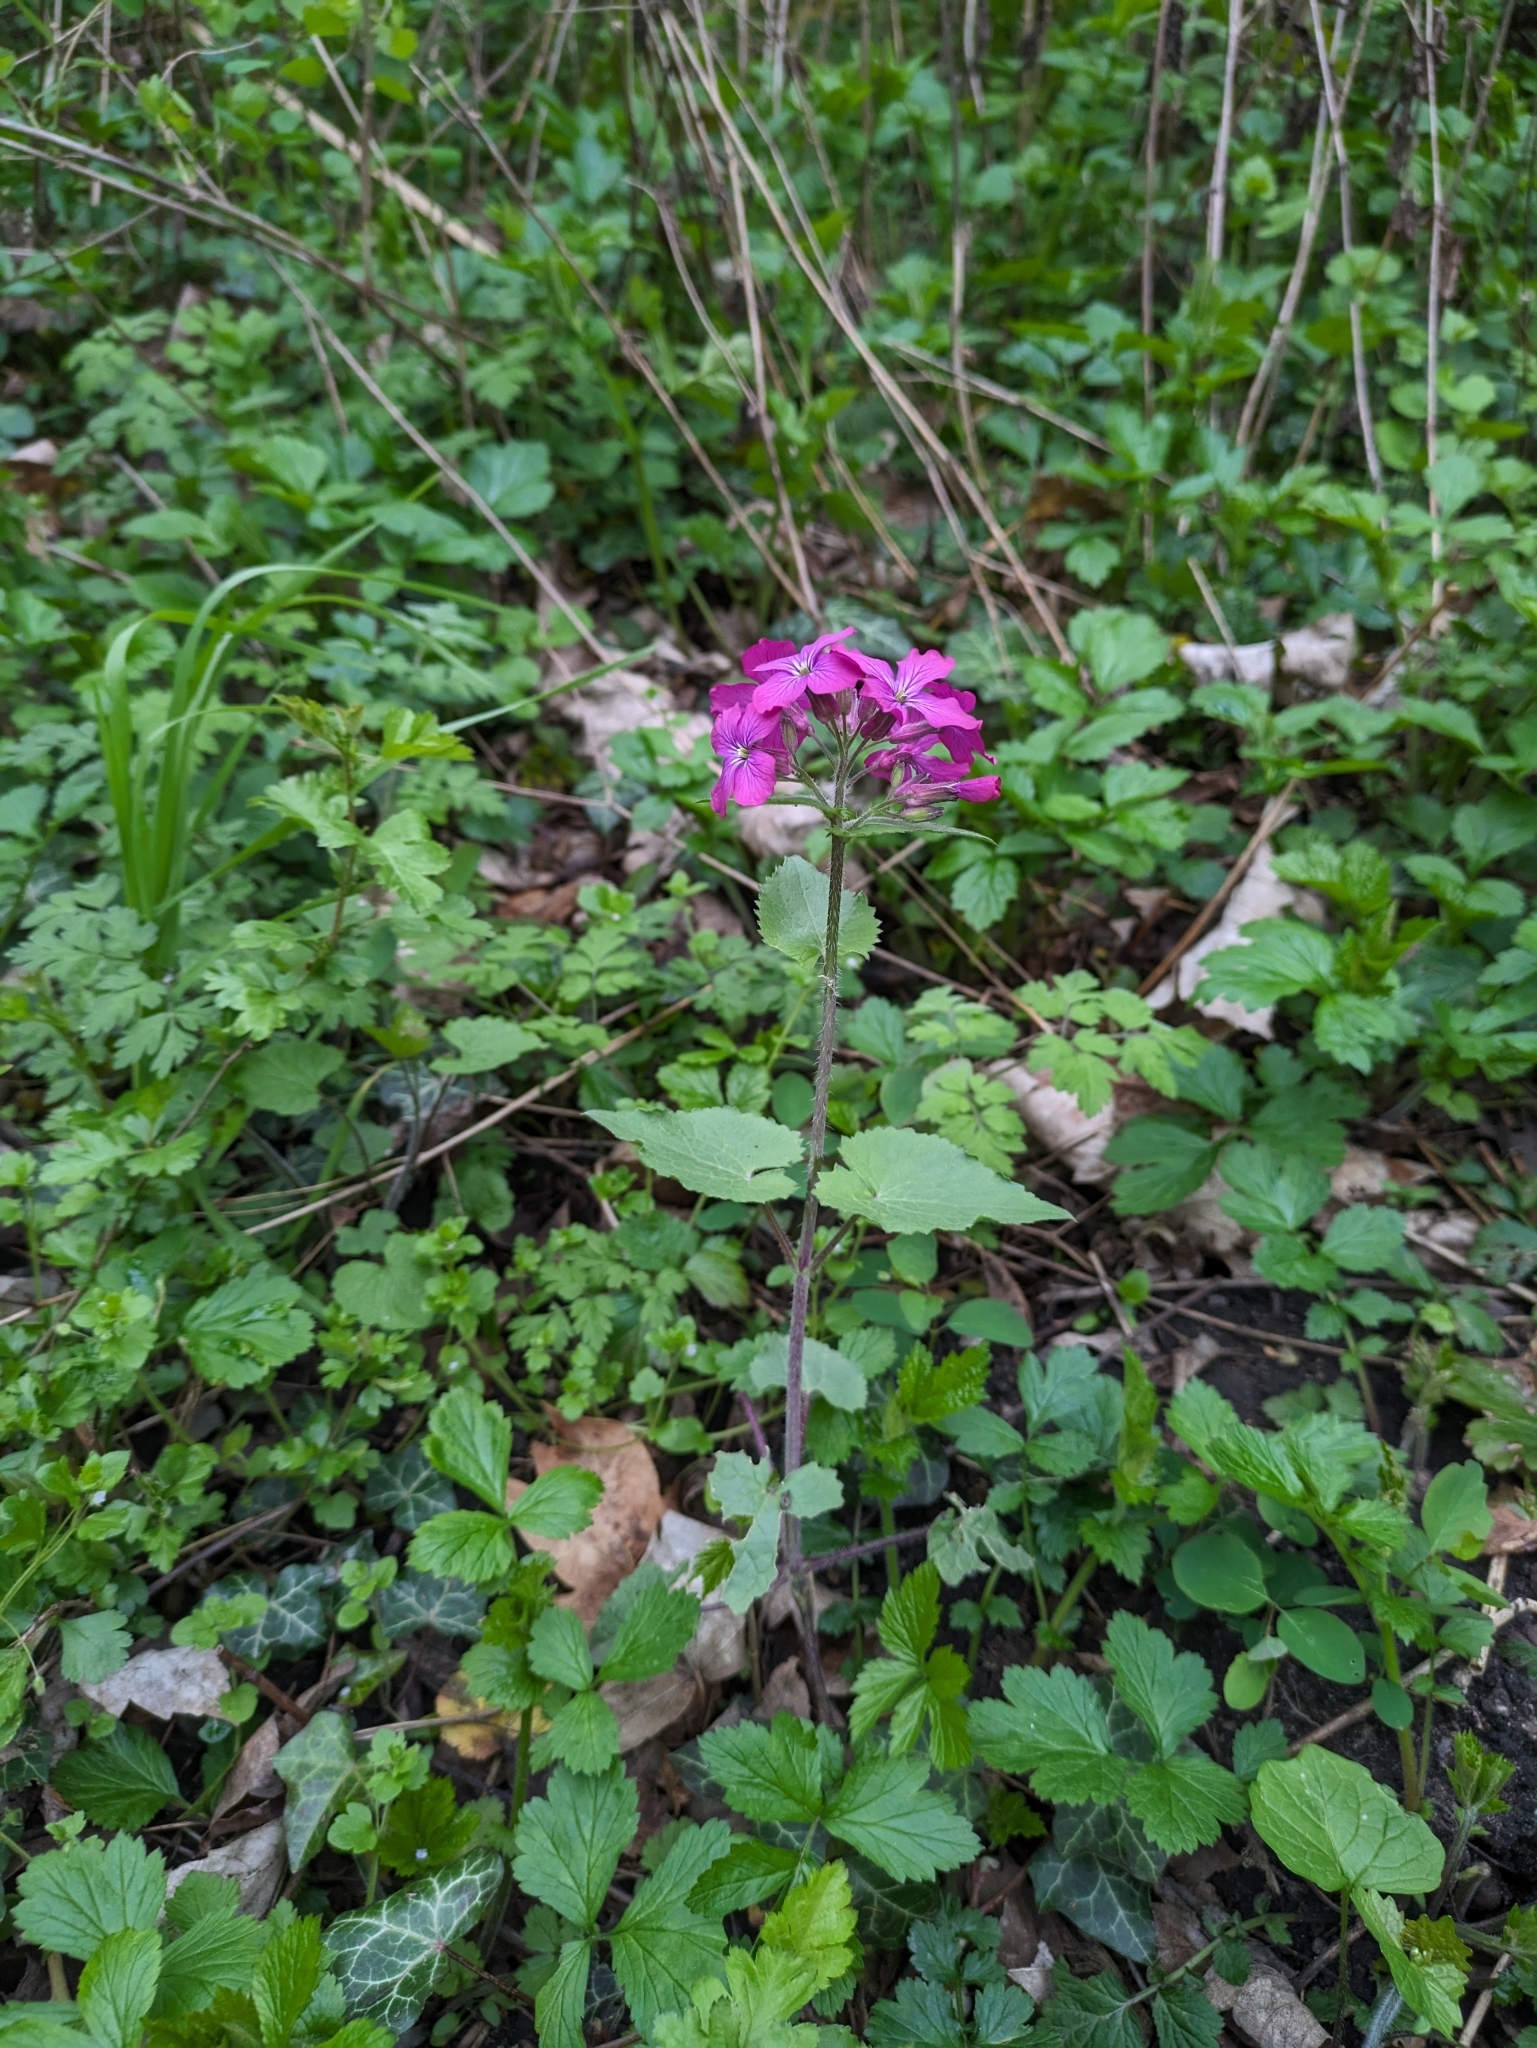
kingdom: Plantae
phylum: Tracheophyta
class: Magnoliopsida
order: Brassicales
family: Brassicaceae
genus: Lunaria
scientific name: Lunaria annua
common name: Honesty
